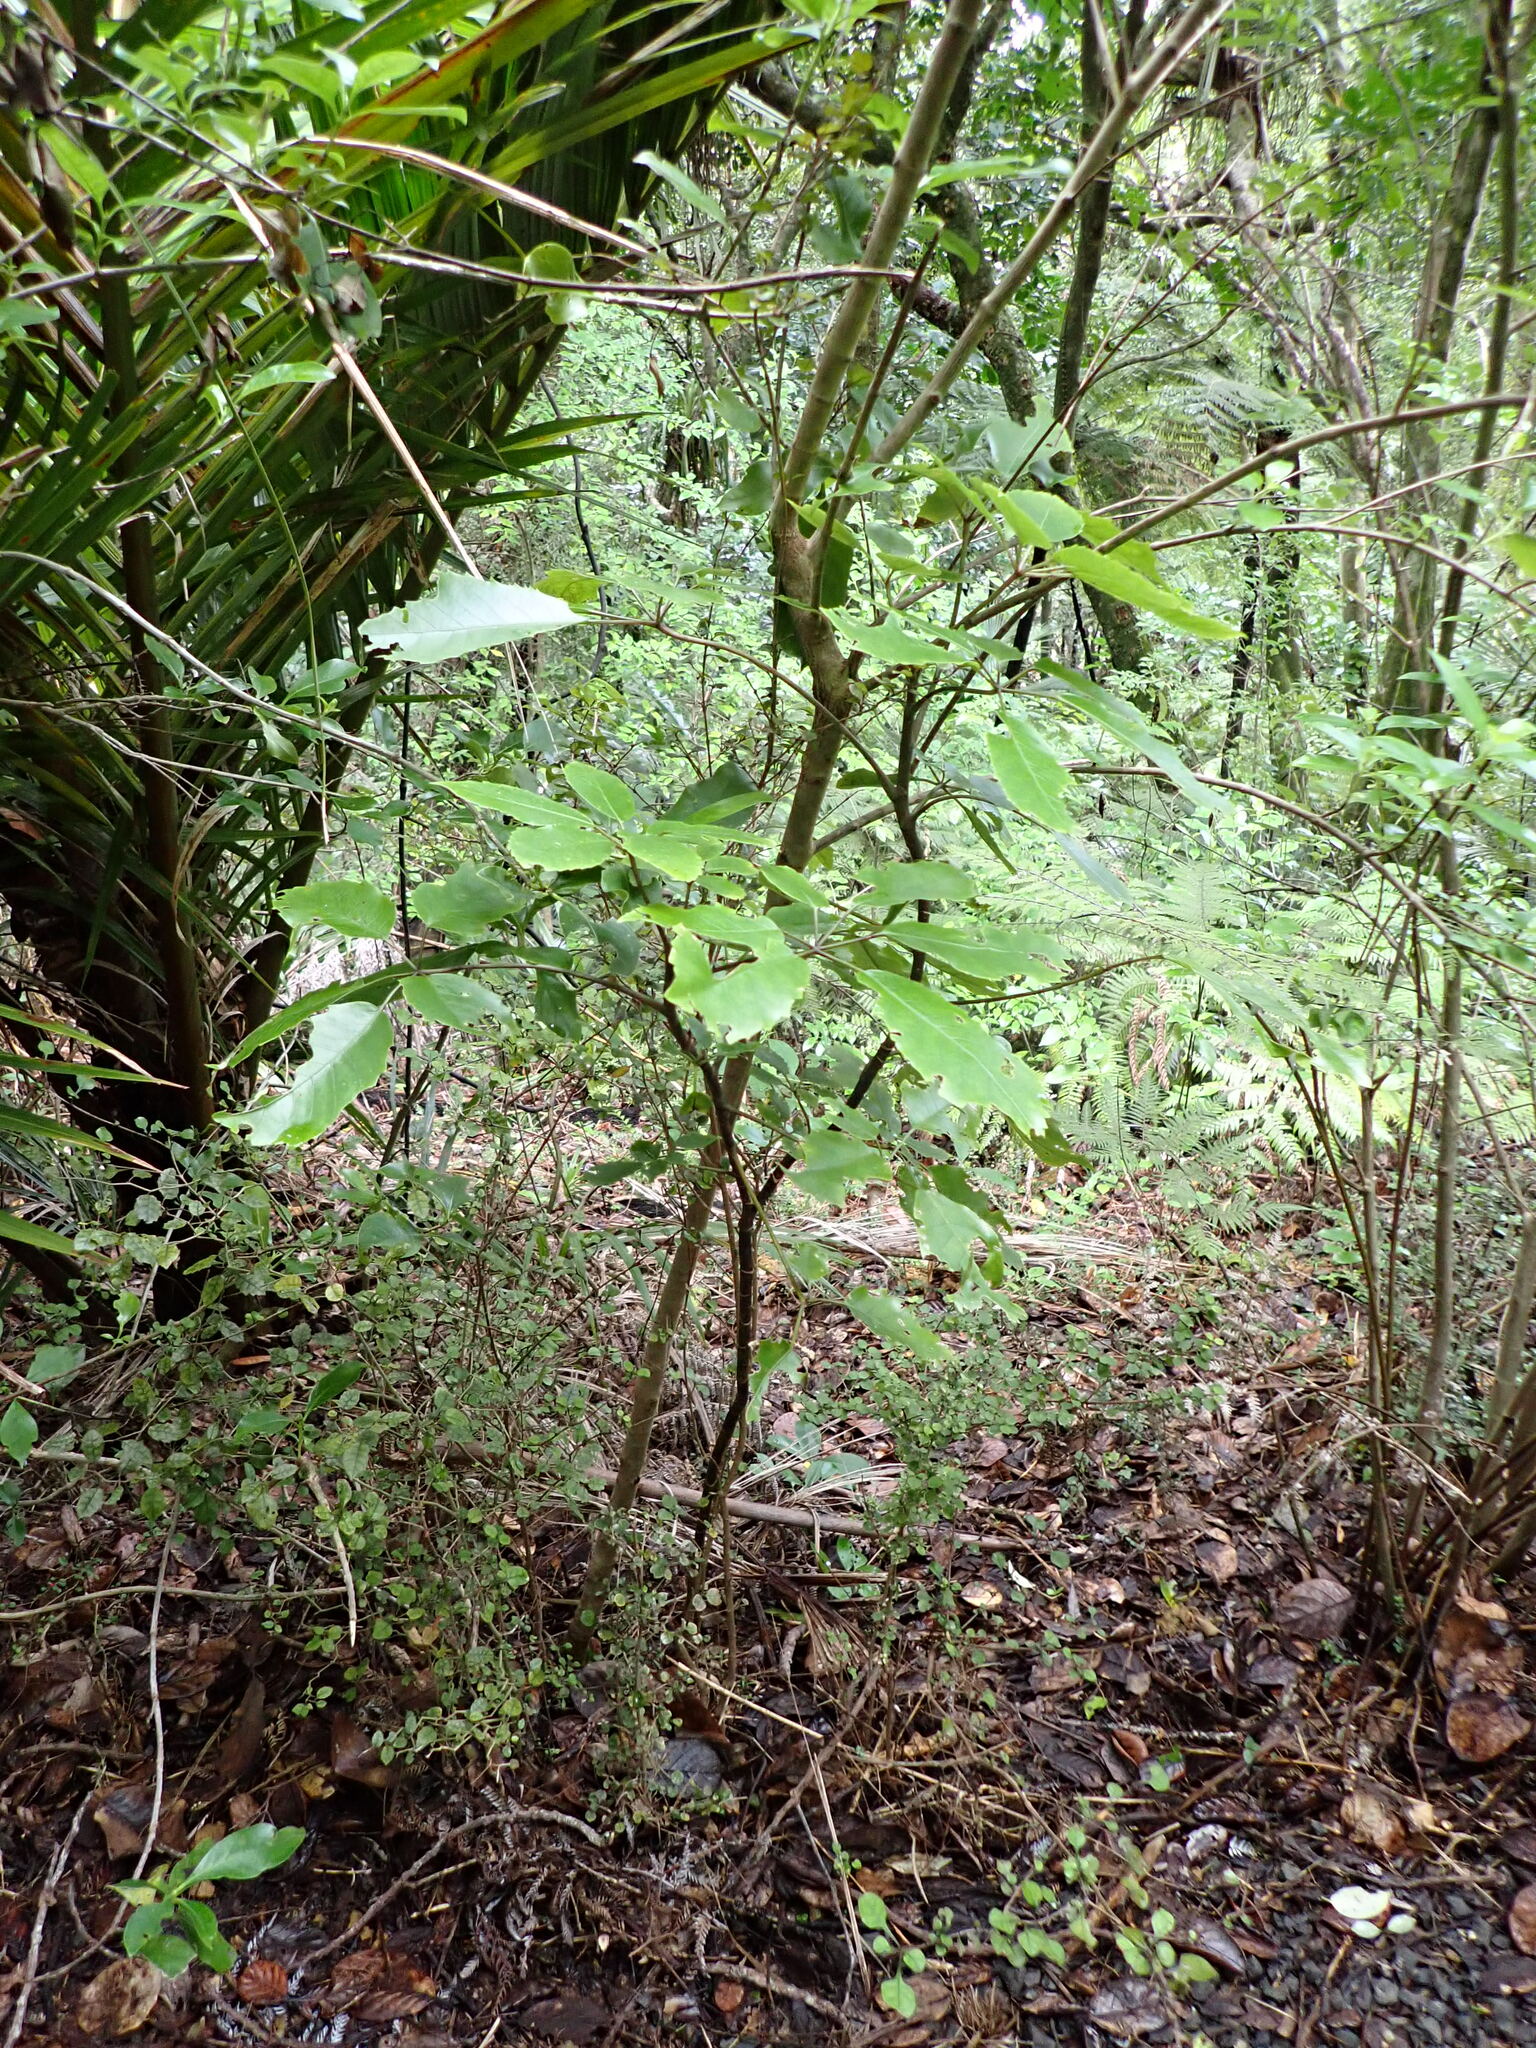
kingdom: Plantae
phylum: Tracheophyta
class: Magnoliopsida
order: Apiales
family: Araliaceae
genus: Neopanax
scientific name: Neopanax arboreus
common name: Five-fingers
